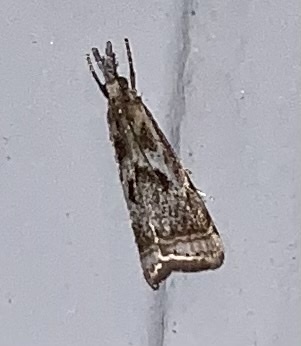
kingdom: Animalia
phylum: Arthropoda
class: Insecta
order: Lepidoptera
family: Crambidae
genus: Microcrambus
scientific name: Microcrambus elegans
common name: Elegant grass-veneer
